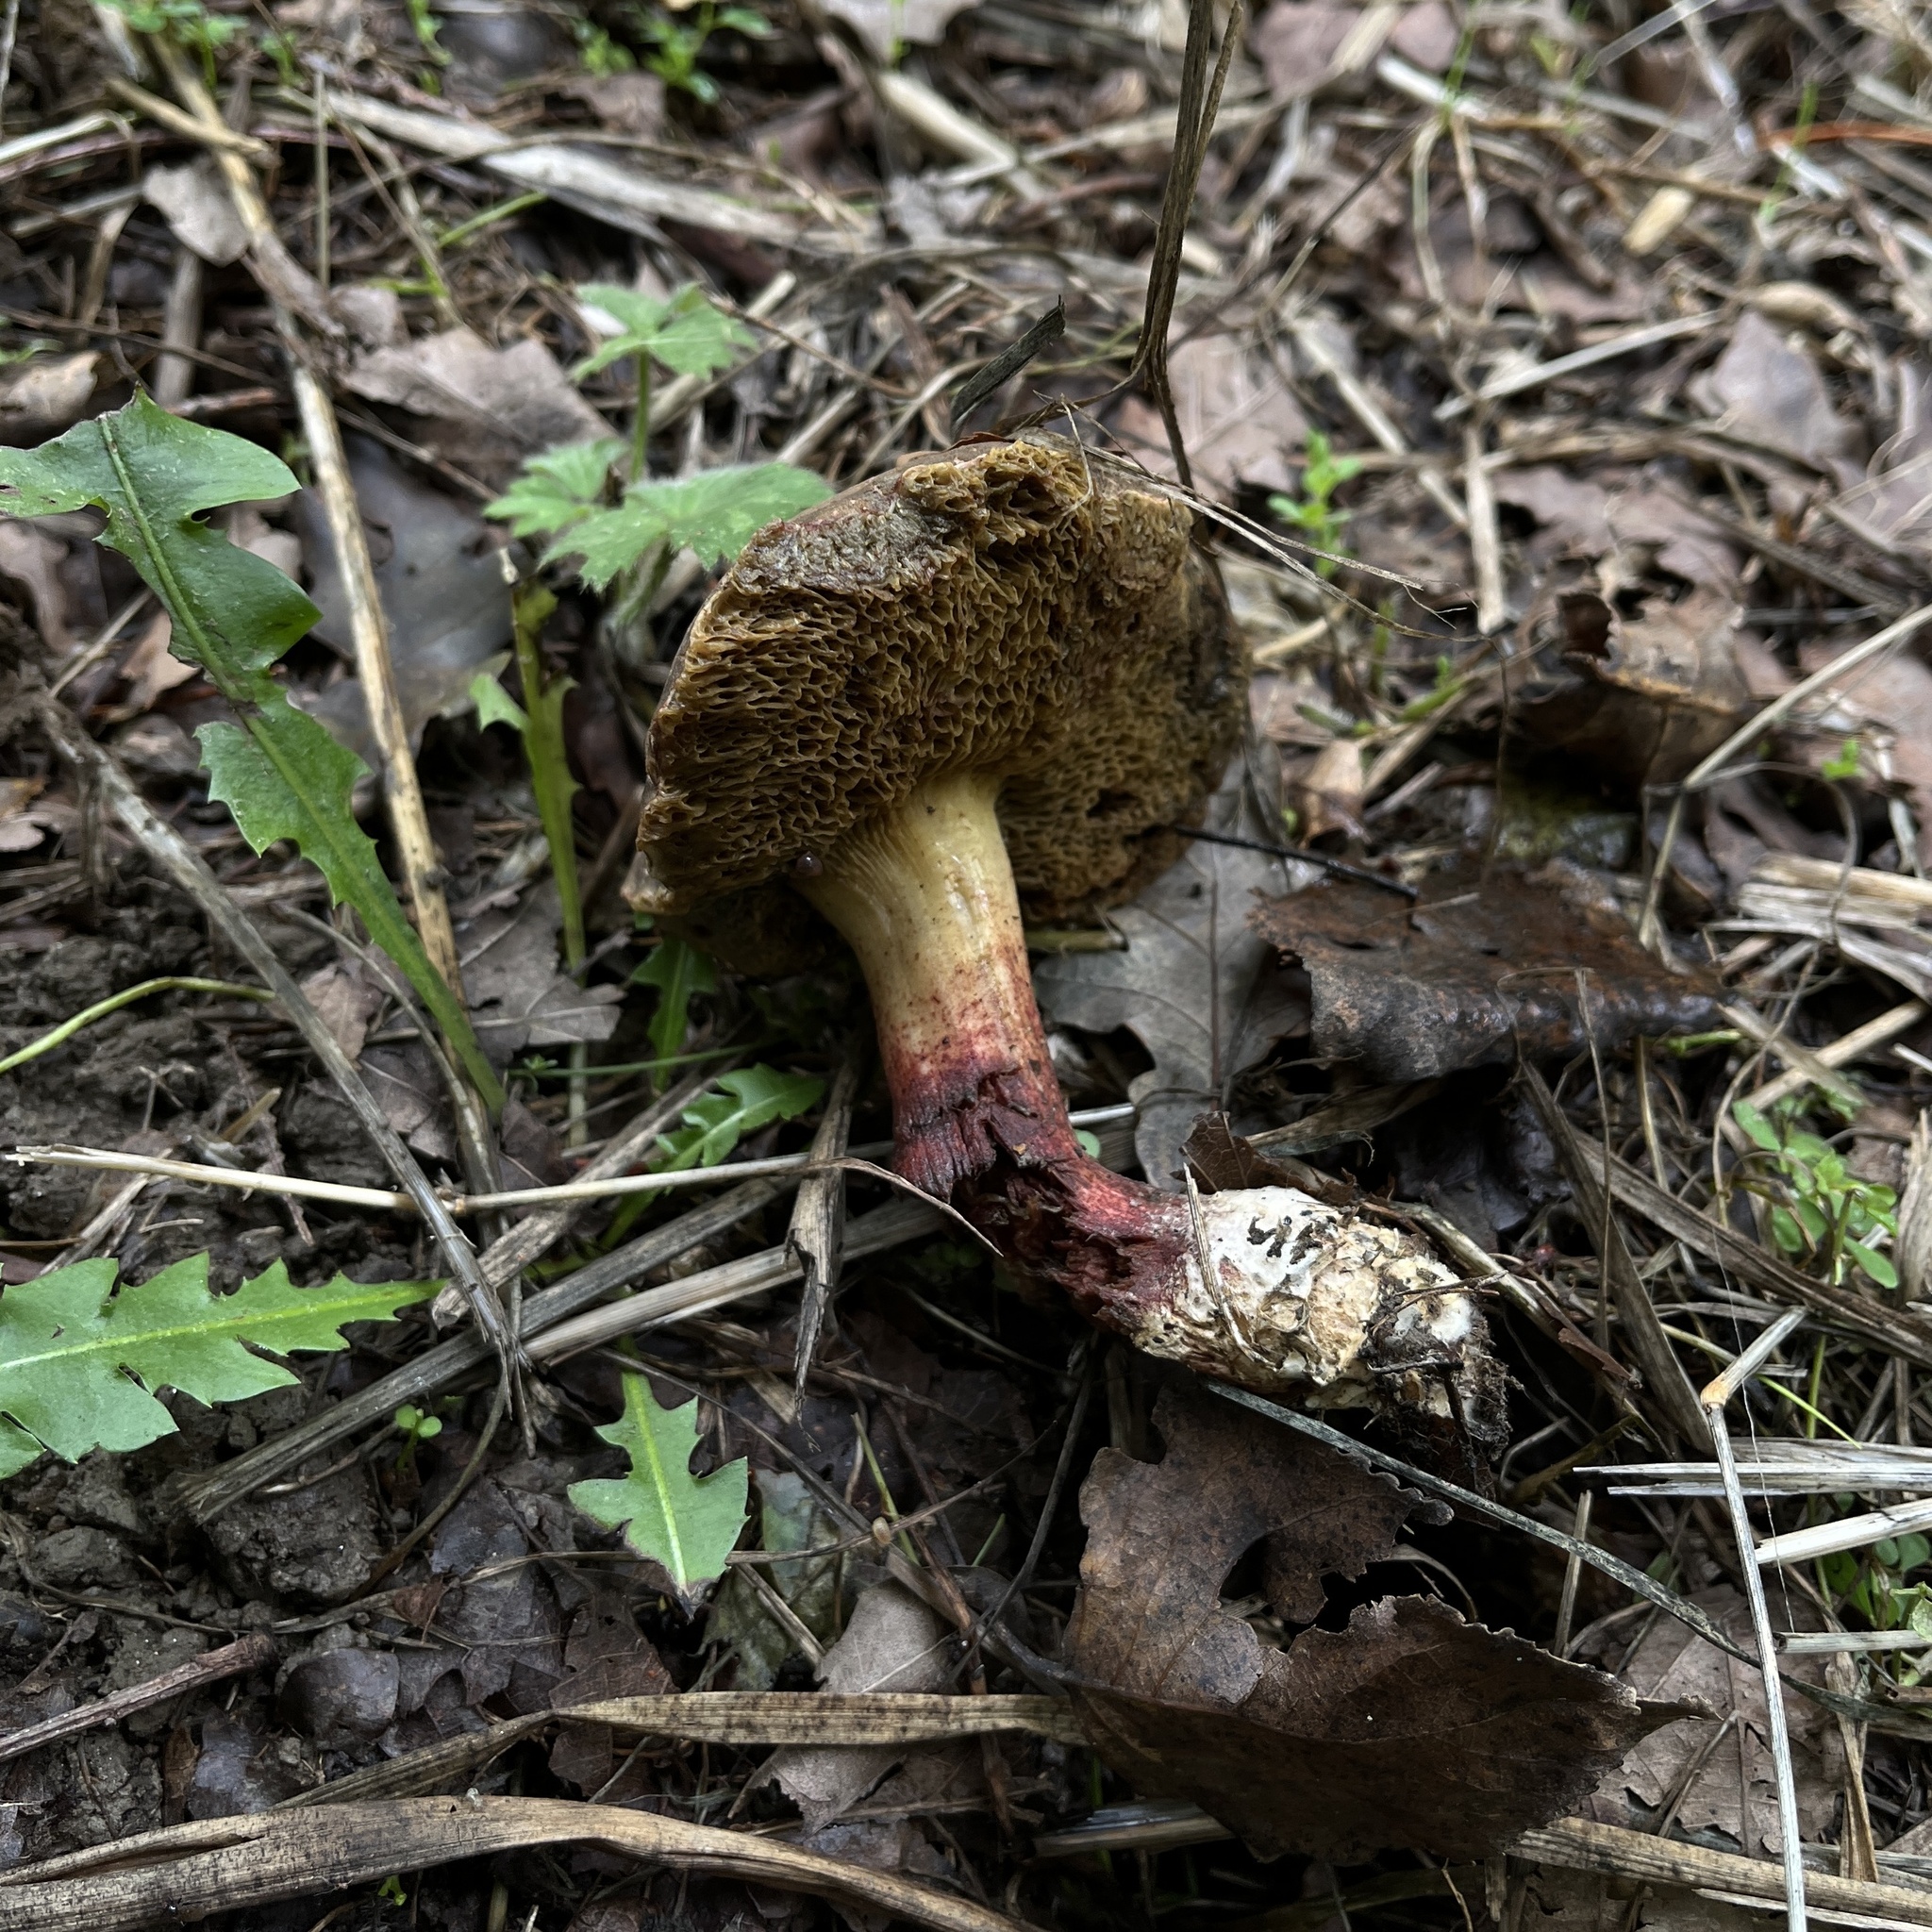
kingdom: Fungi
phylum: Basidiomycota
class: Agaricomycetes
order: Boletales
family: Boletaceae
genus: Xerocomellus
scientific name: Xerocomellus chrysenteron
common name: Red-cracking bolete
